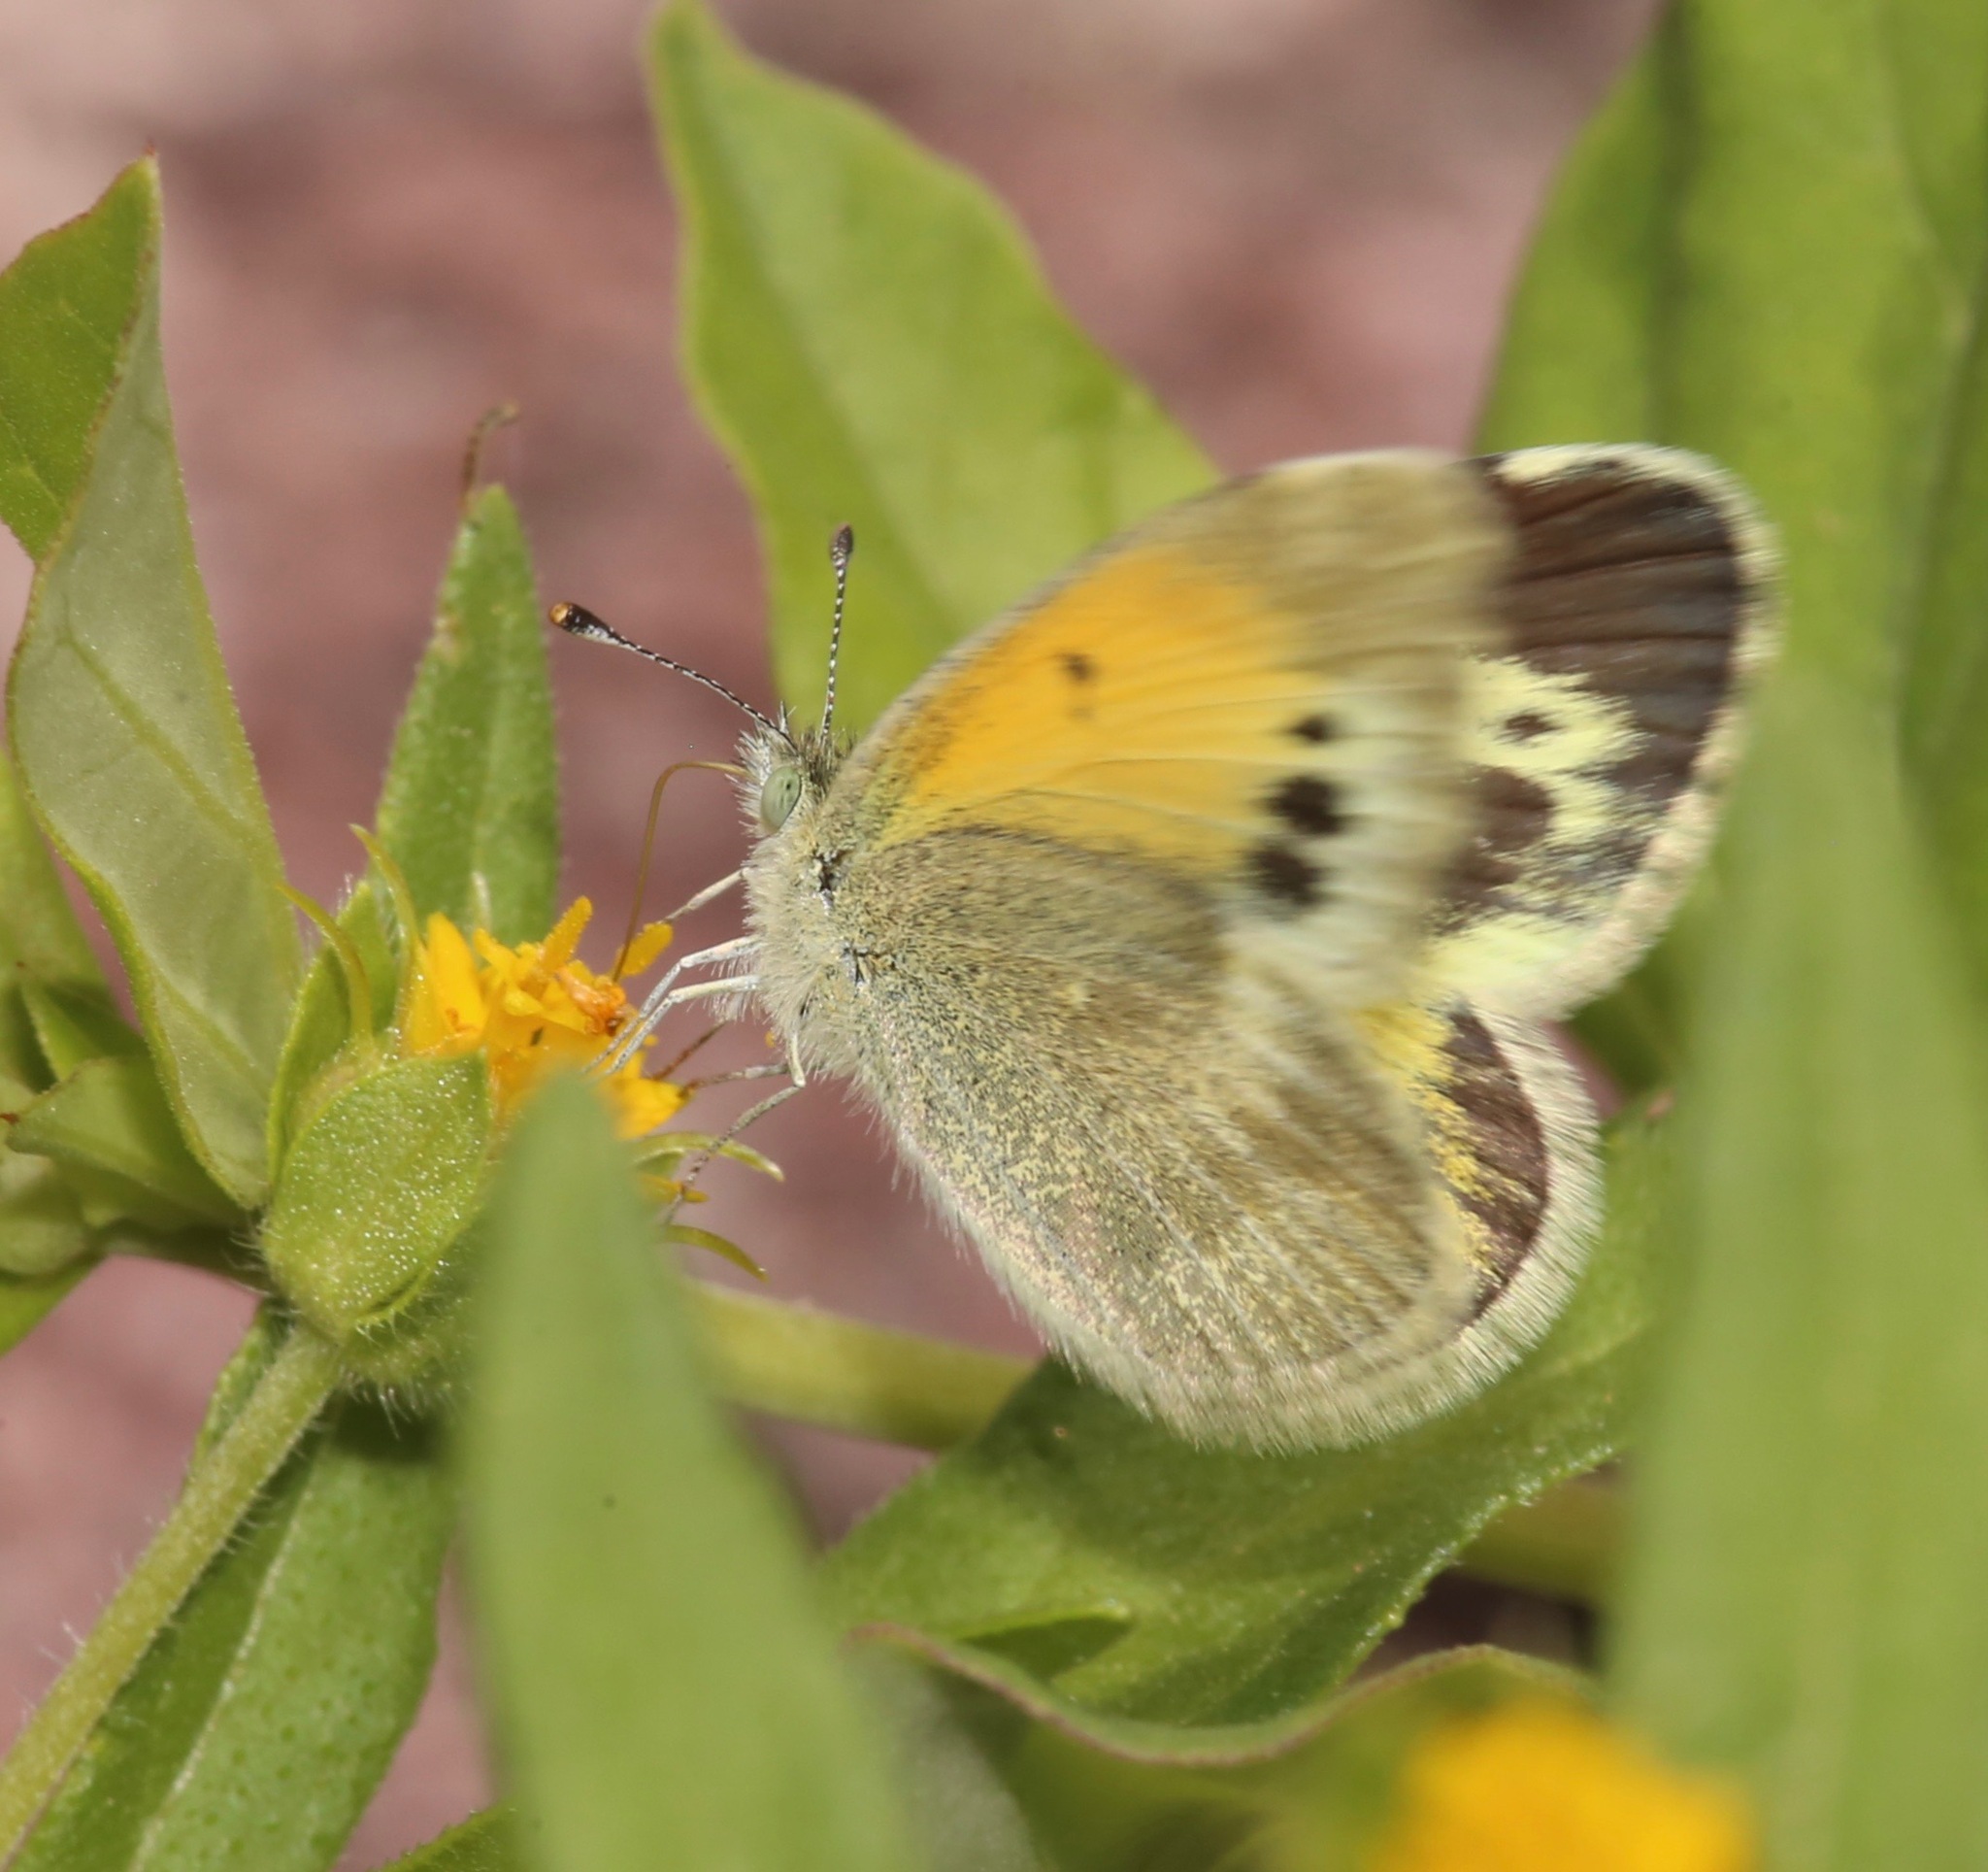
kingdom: Animalia
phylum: Arthropoda
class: Insecta
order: Lepidoptera
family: Pieridae
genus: Nathalis
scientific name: Nathalis iole
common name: Dainty sulphur
